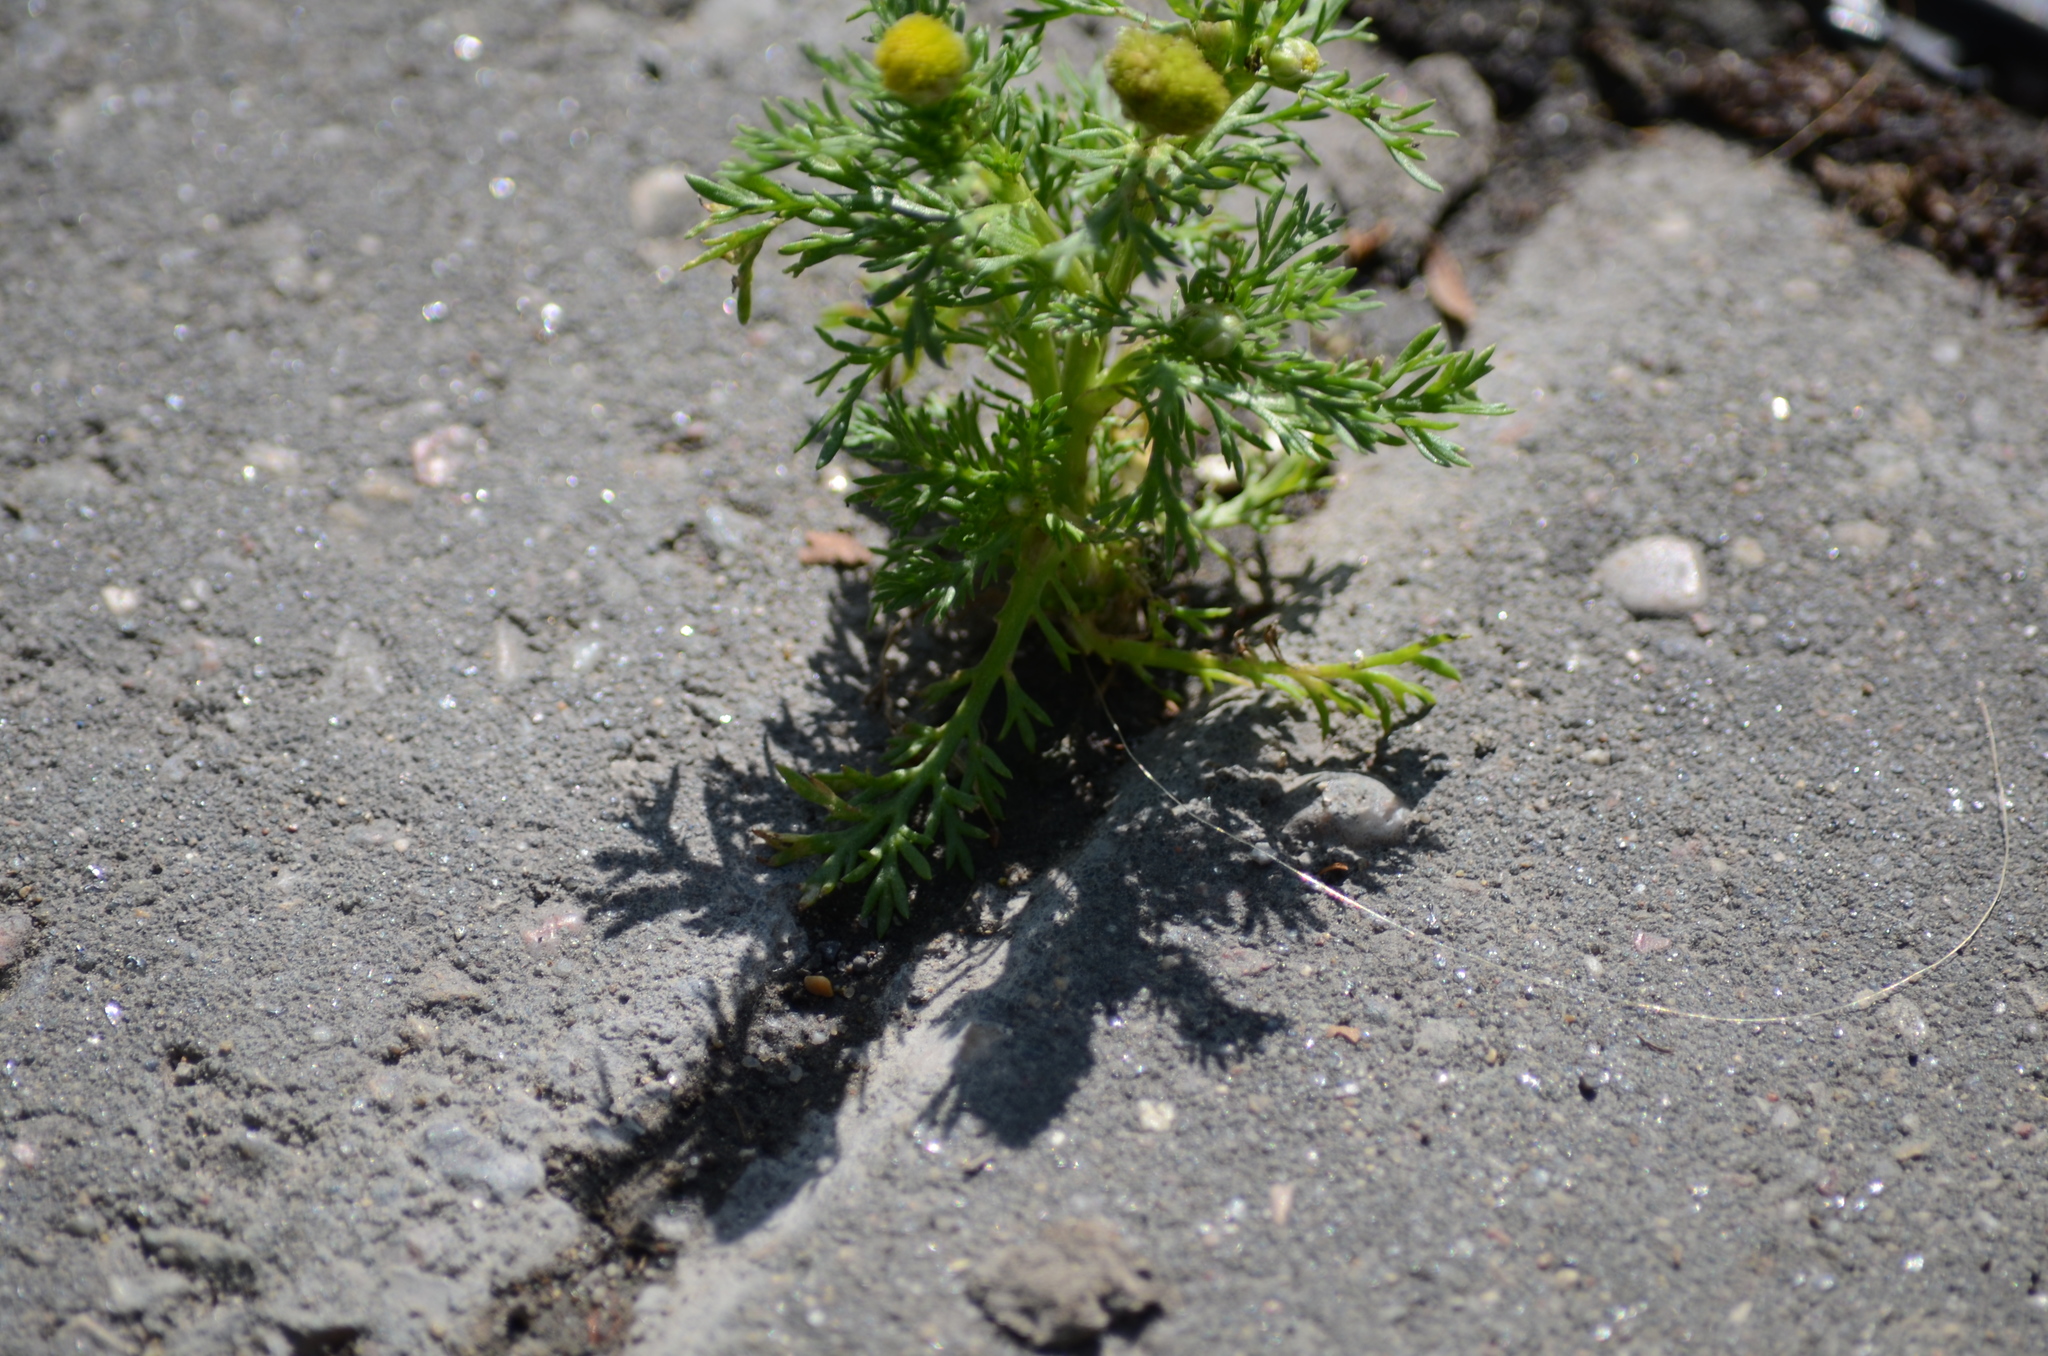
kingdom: Plantae
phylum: Tracheophyta
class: Magnoliopsida
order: Asterales
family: Asteraceae
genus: Matricaria
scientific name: Matricaria discoidea
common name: Disc mayweed
